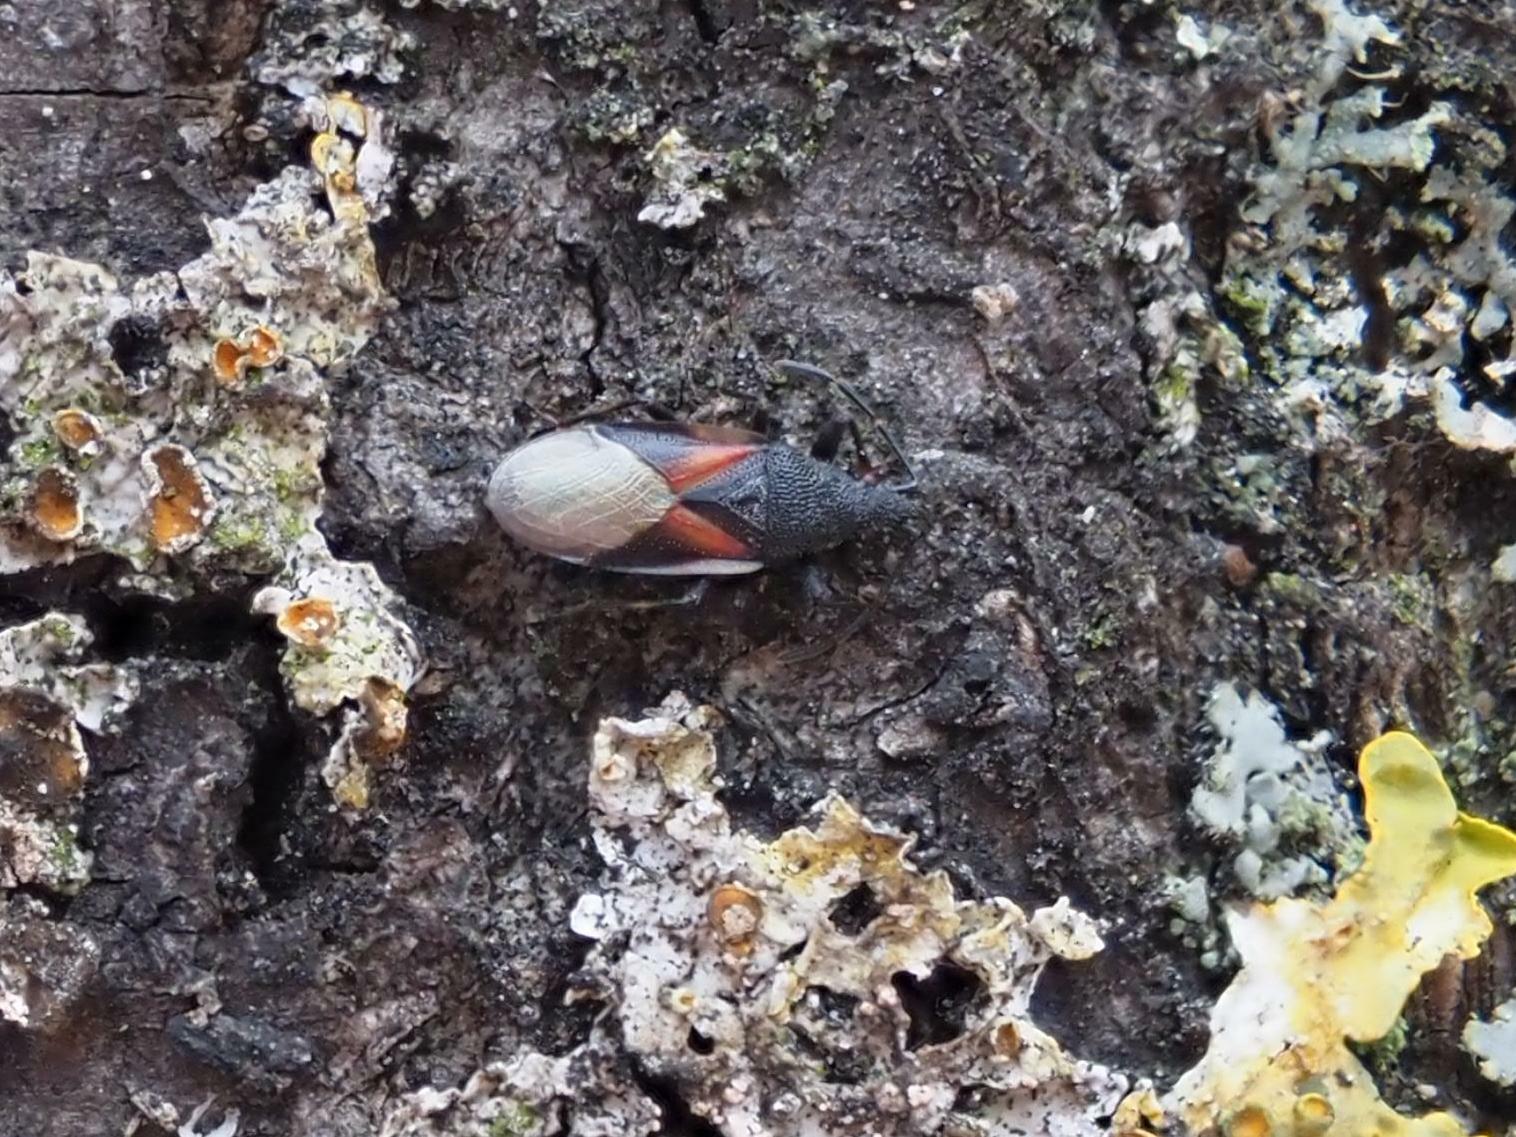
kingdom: Animalia
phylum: Arthropoda
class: Insecta
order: Hemiptera
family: Oxycarenidae
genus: Oxycarenus
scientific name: Oxycarenus lavaterae
